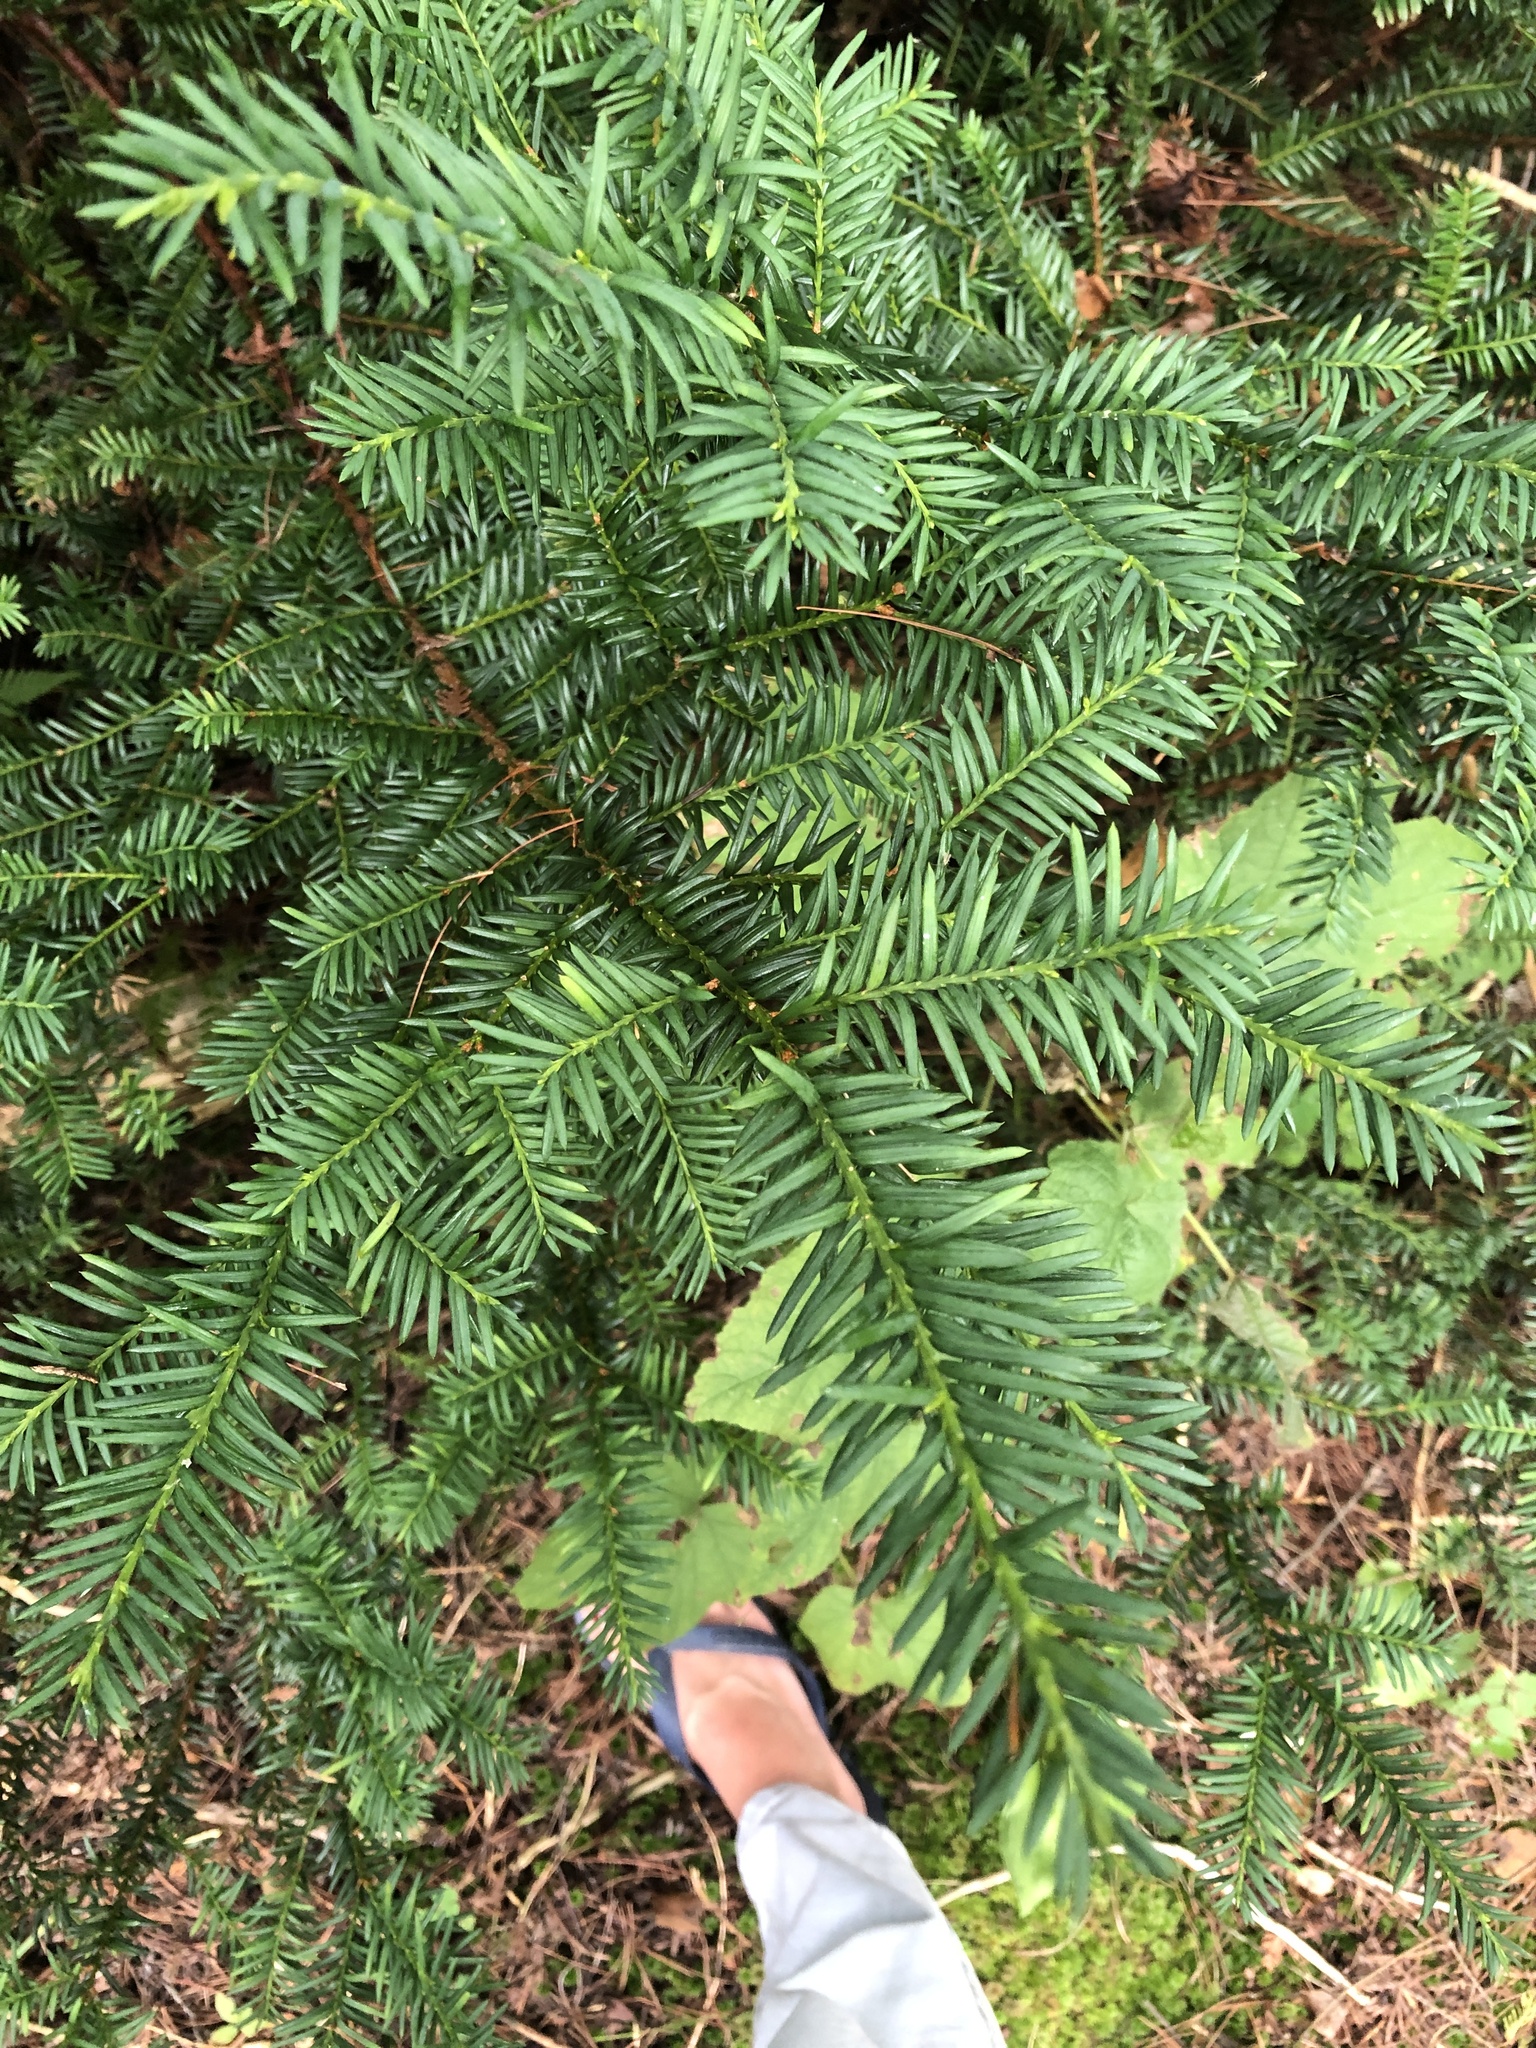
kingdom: Plantae
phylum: Tracheophyta
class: Pinopsida
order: Pinales
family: Taxaceae
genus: Taxus
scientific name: Taxus canadensis
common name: American yew
